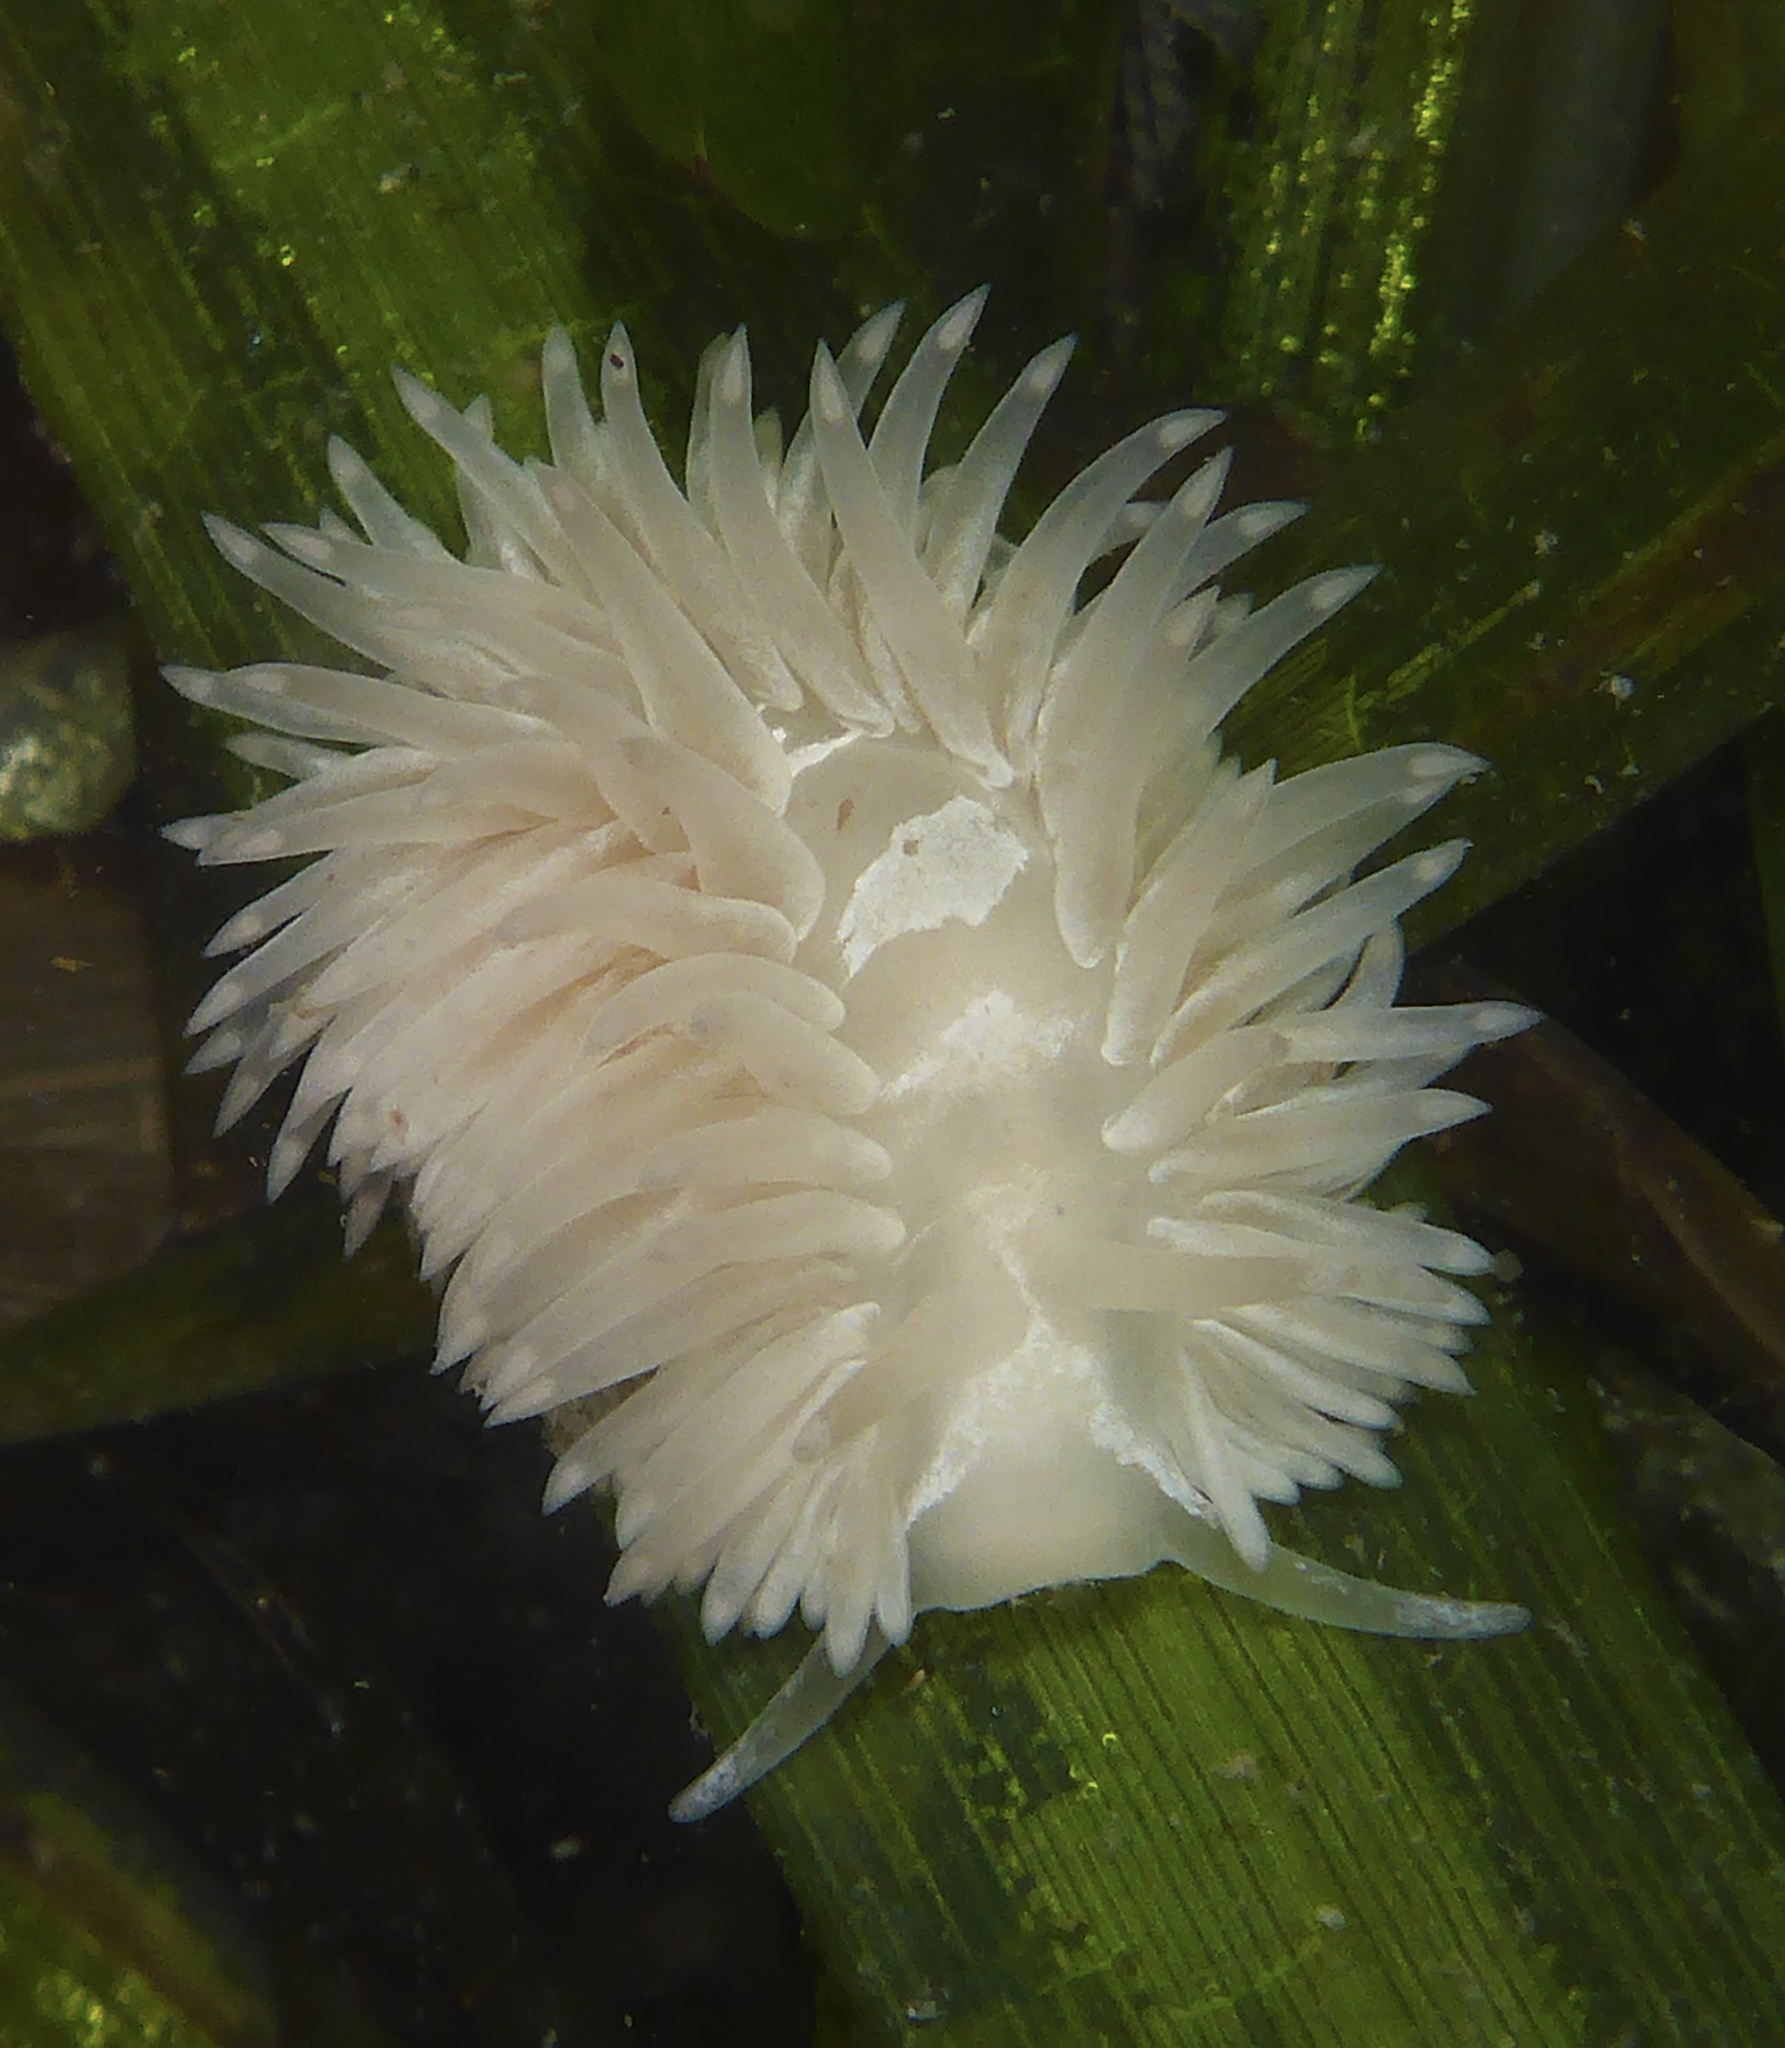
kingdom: Animalia
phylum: Mollusca
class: Gastropoda
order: Nudibranchia
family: Aeolidiidae
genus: Aeolidia
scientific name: Aeolidia loui
